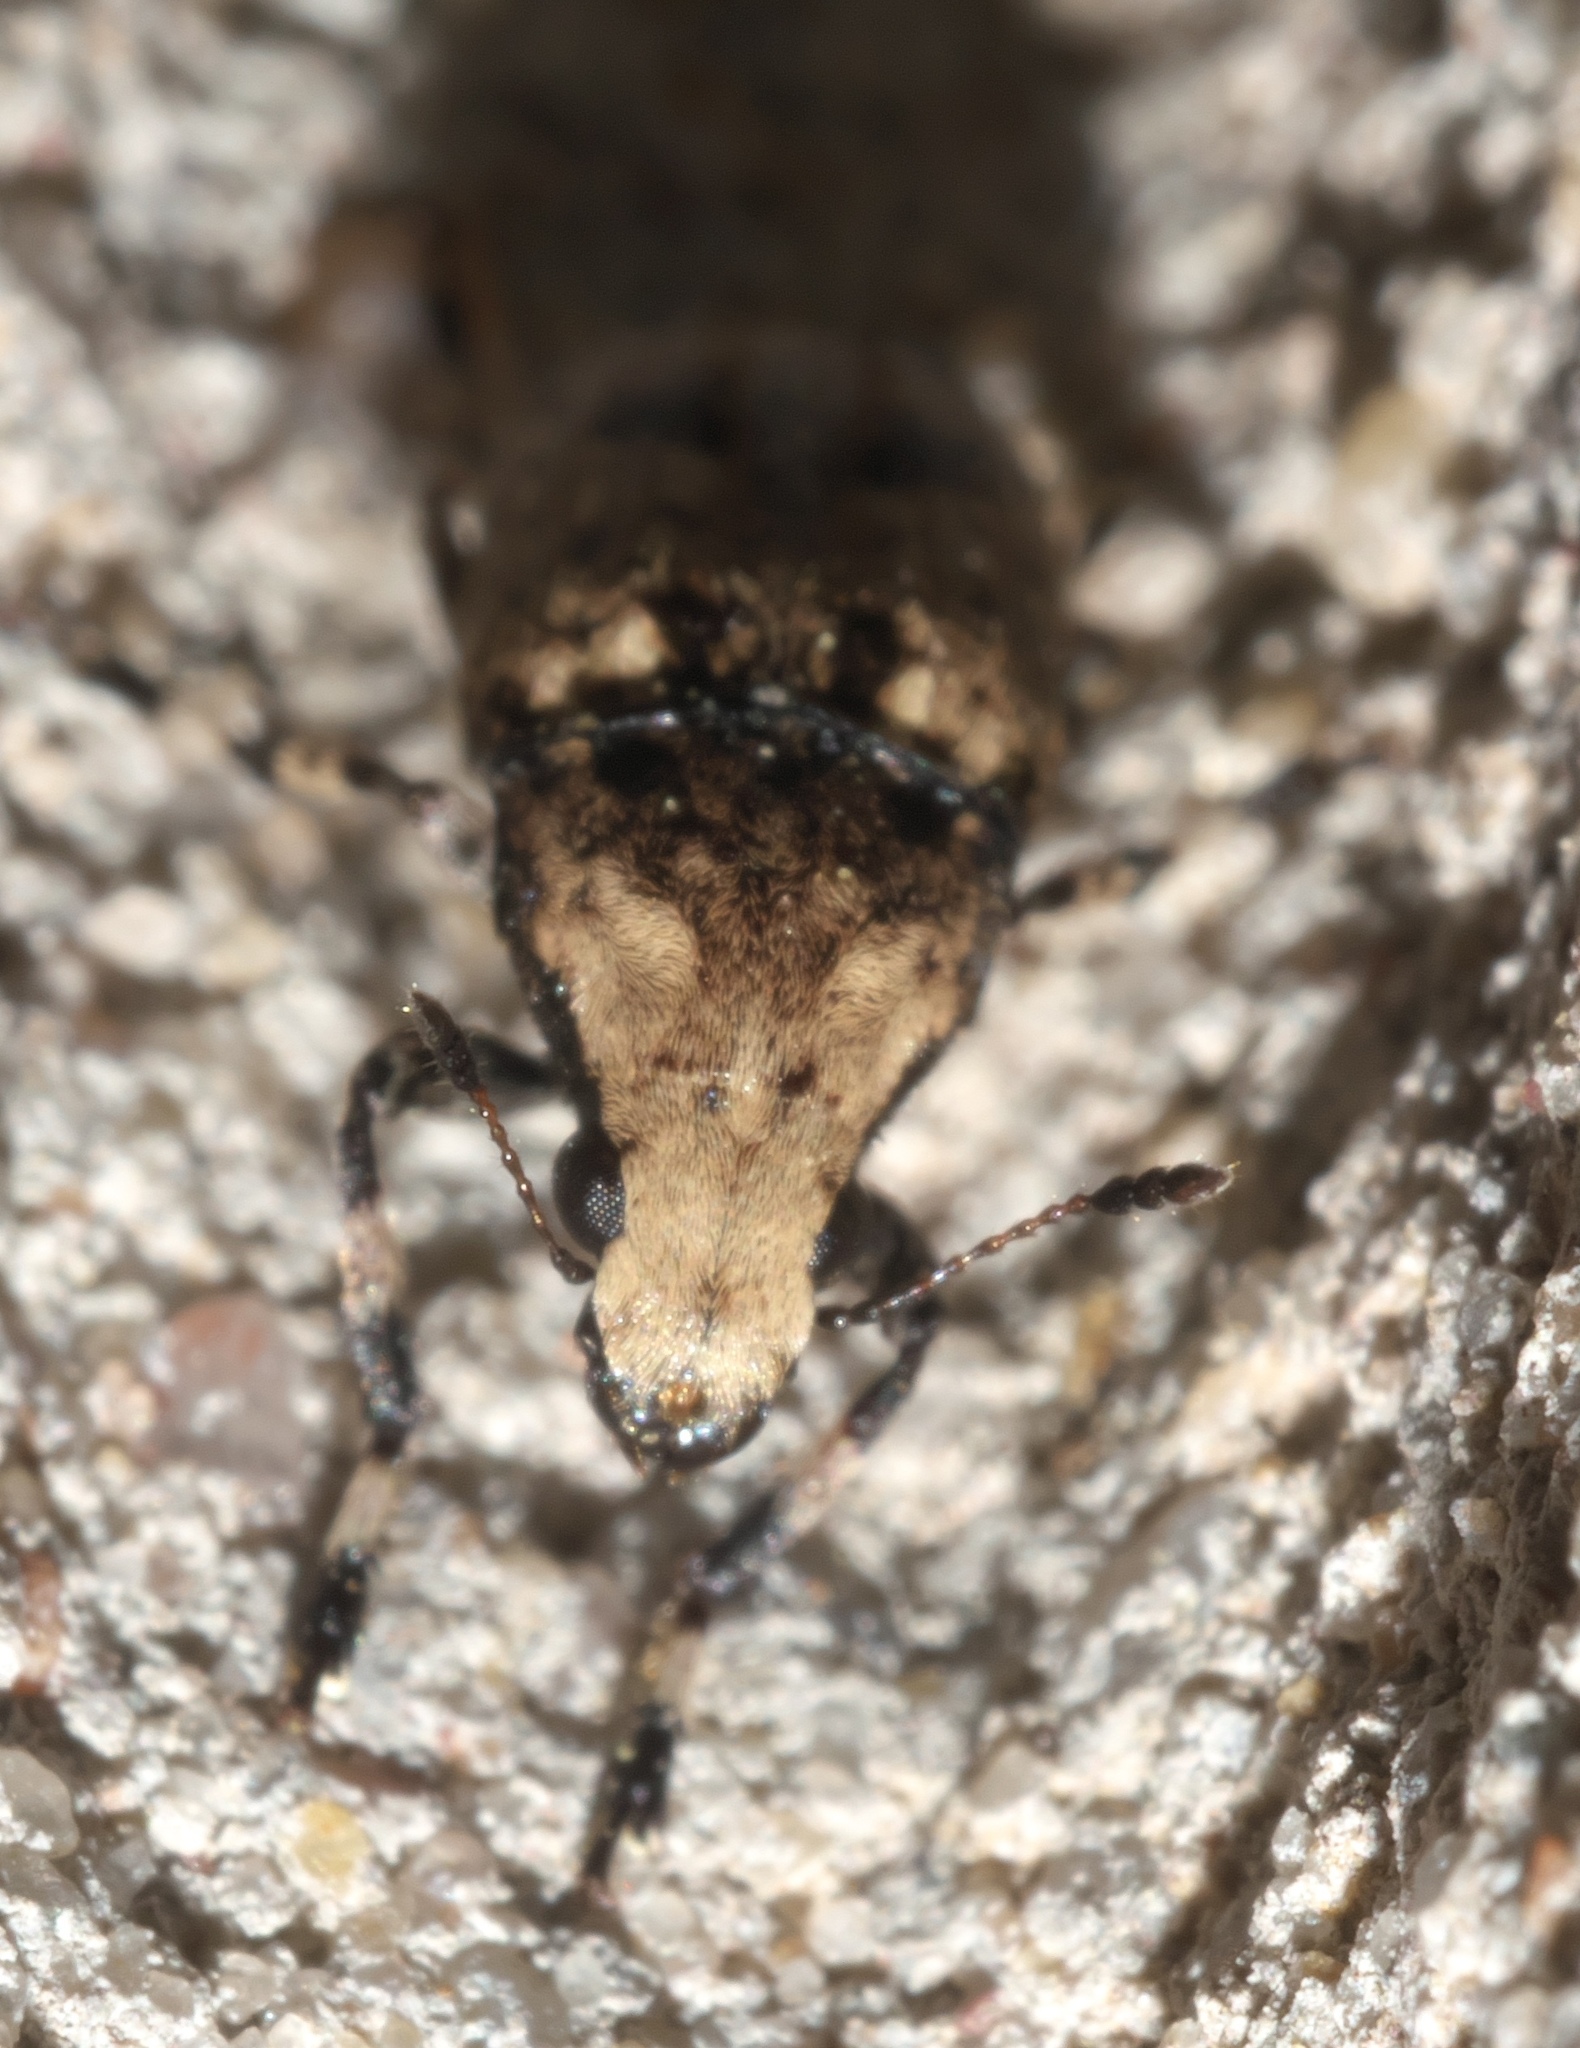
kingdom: Animalia
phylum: Arthropoda
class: Insecta
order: Coleoptera
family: Anthribidae
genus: Euparius
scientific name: Euparius marmoreus
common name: Marbled fungus weevil
